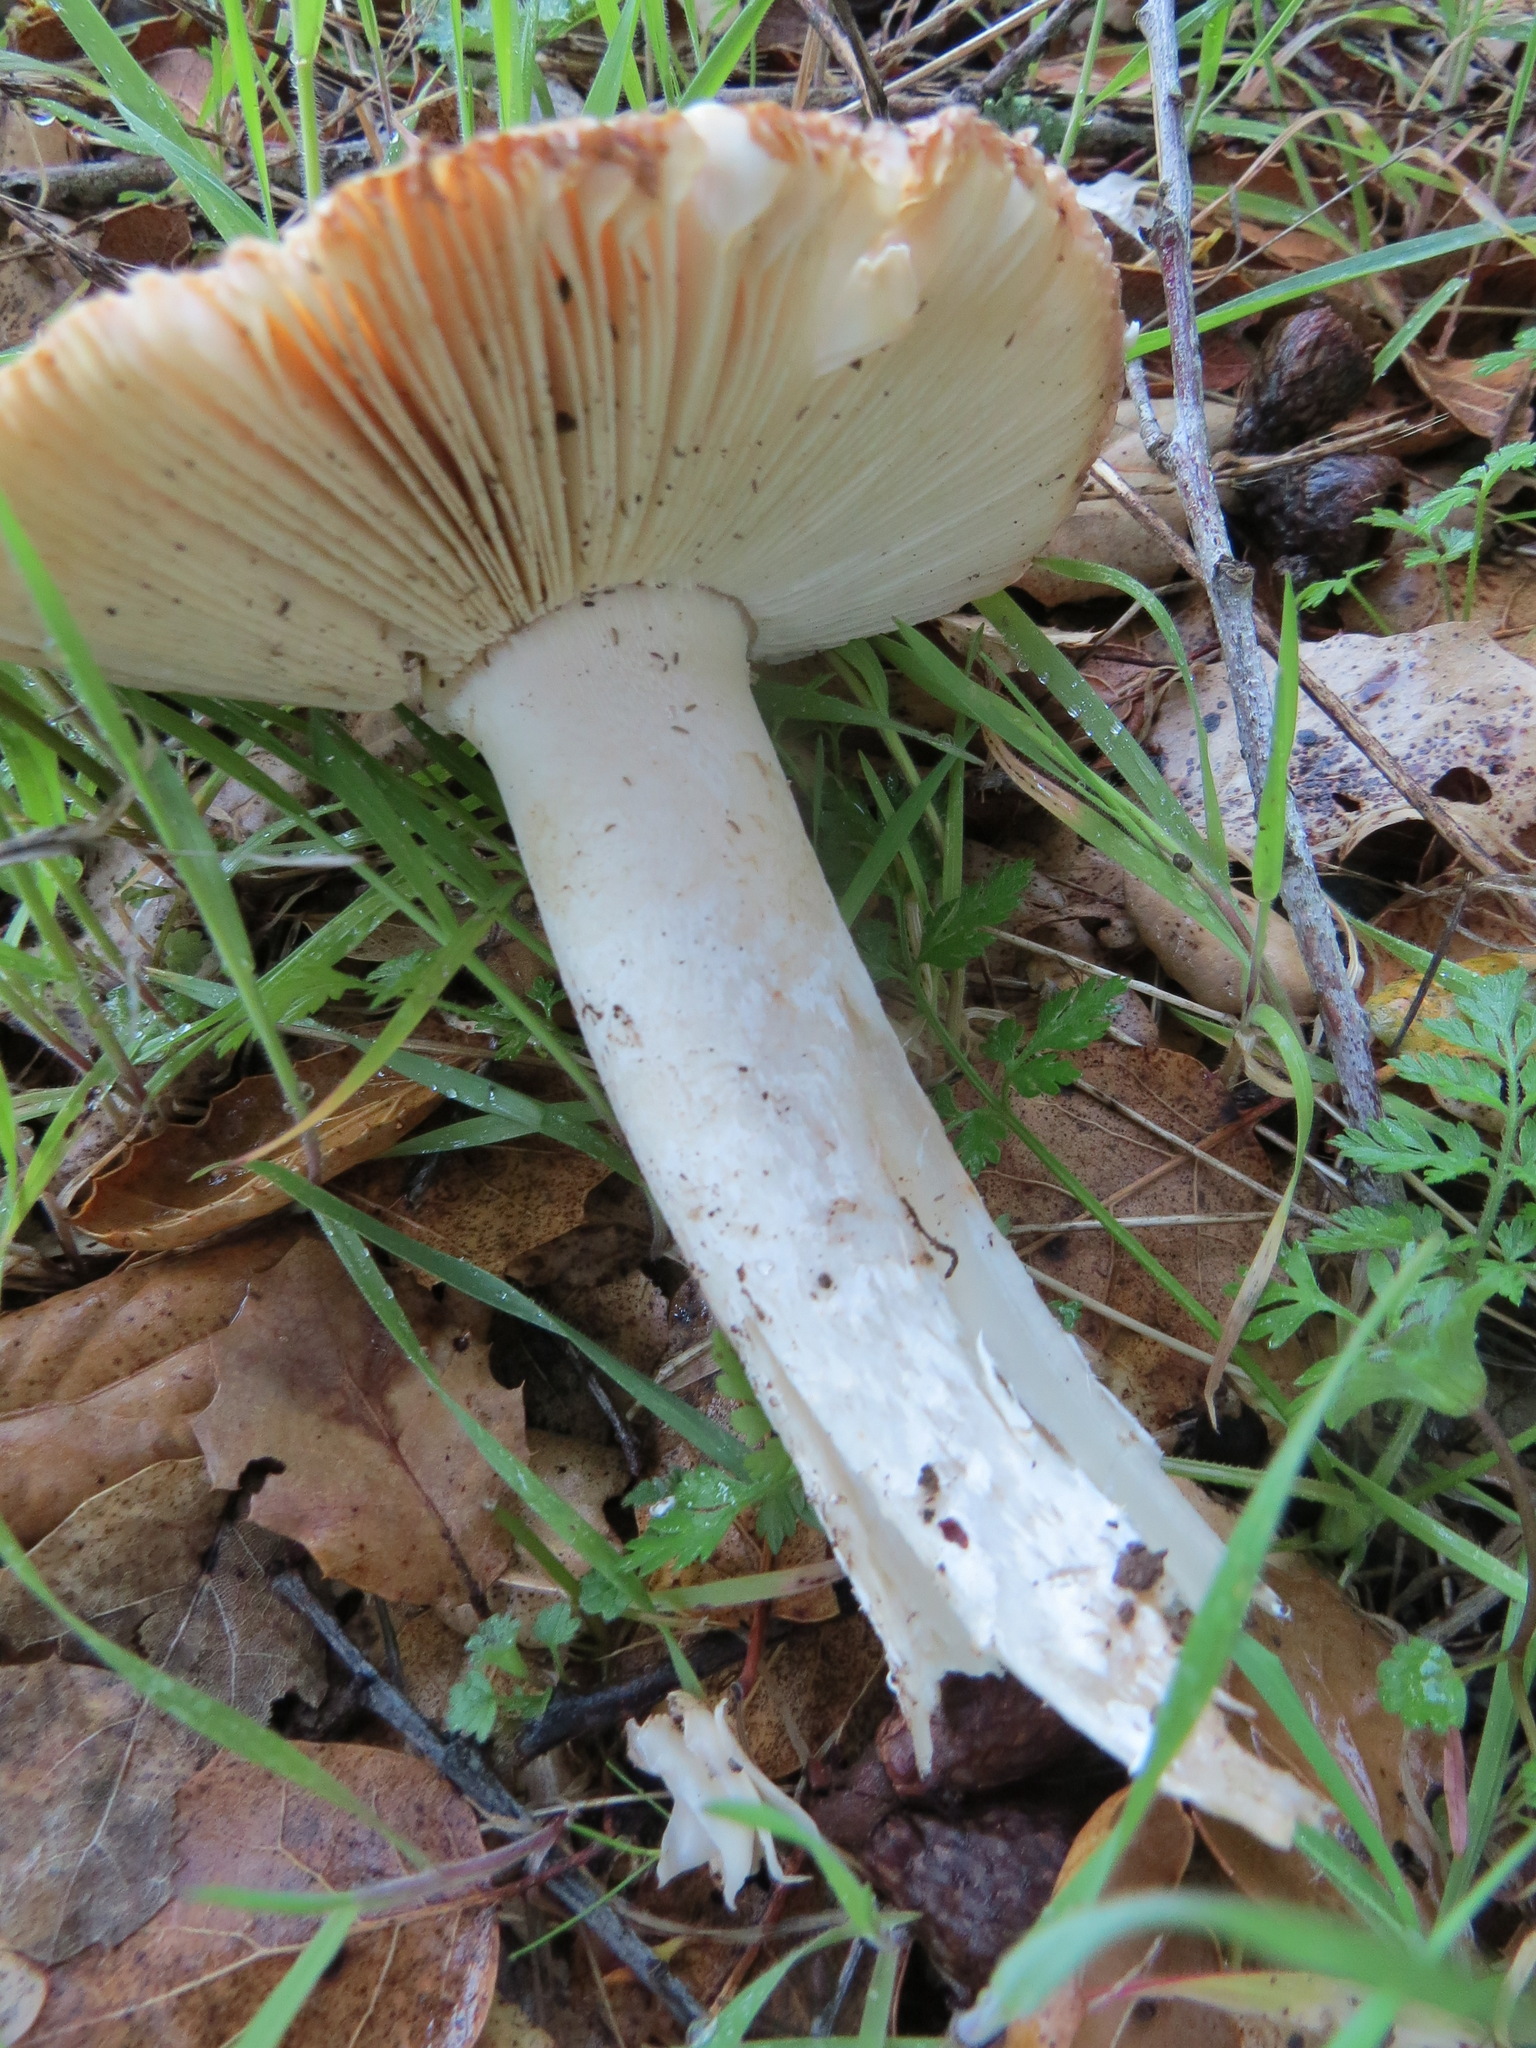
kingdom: Fungi
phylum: Basidiomycota
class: Agaricomycetes
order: Agaricales
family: Amanitaceae
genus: Amanita
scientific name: Amanita velosa
